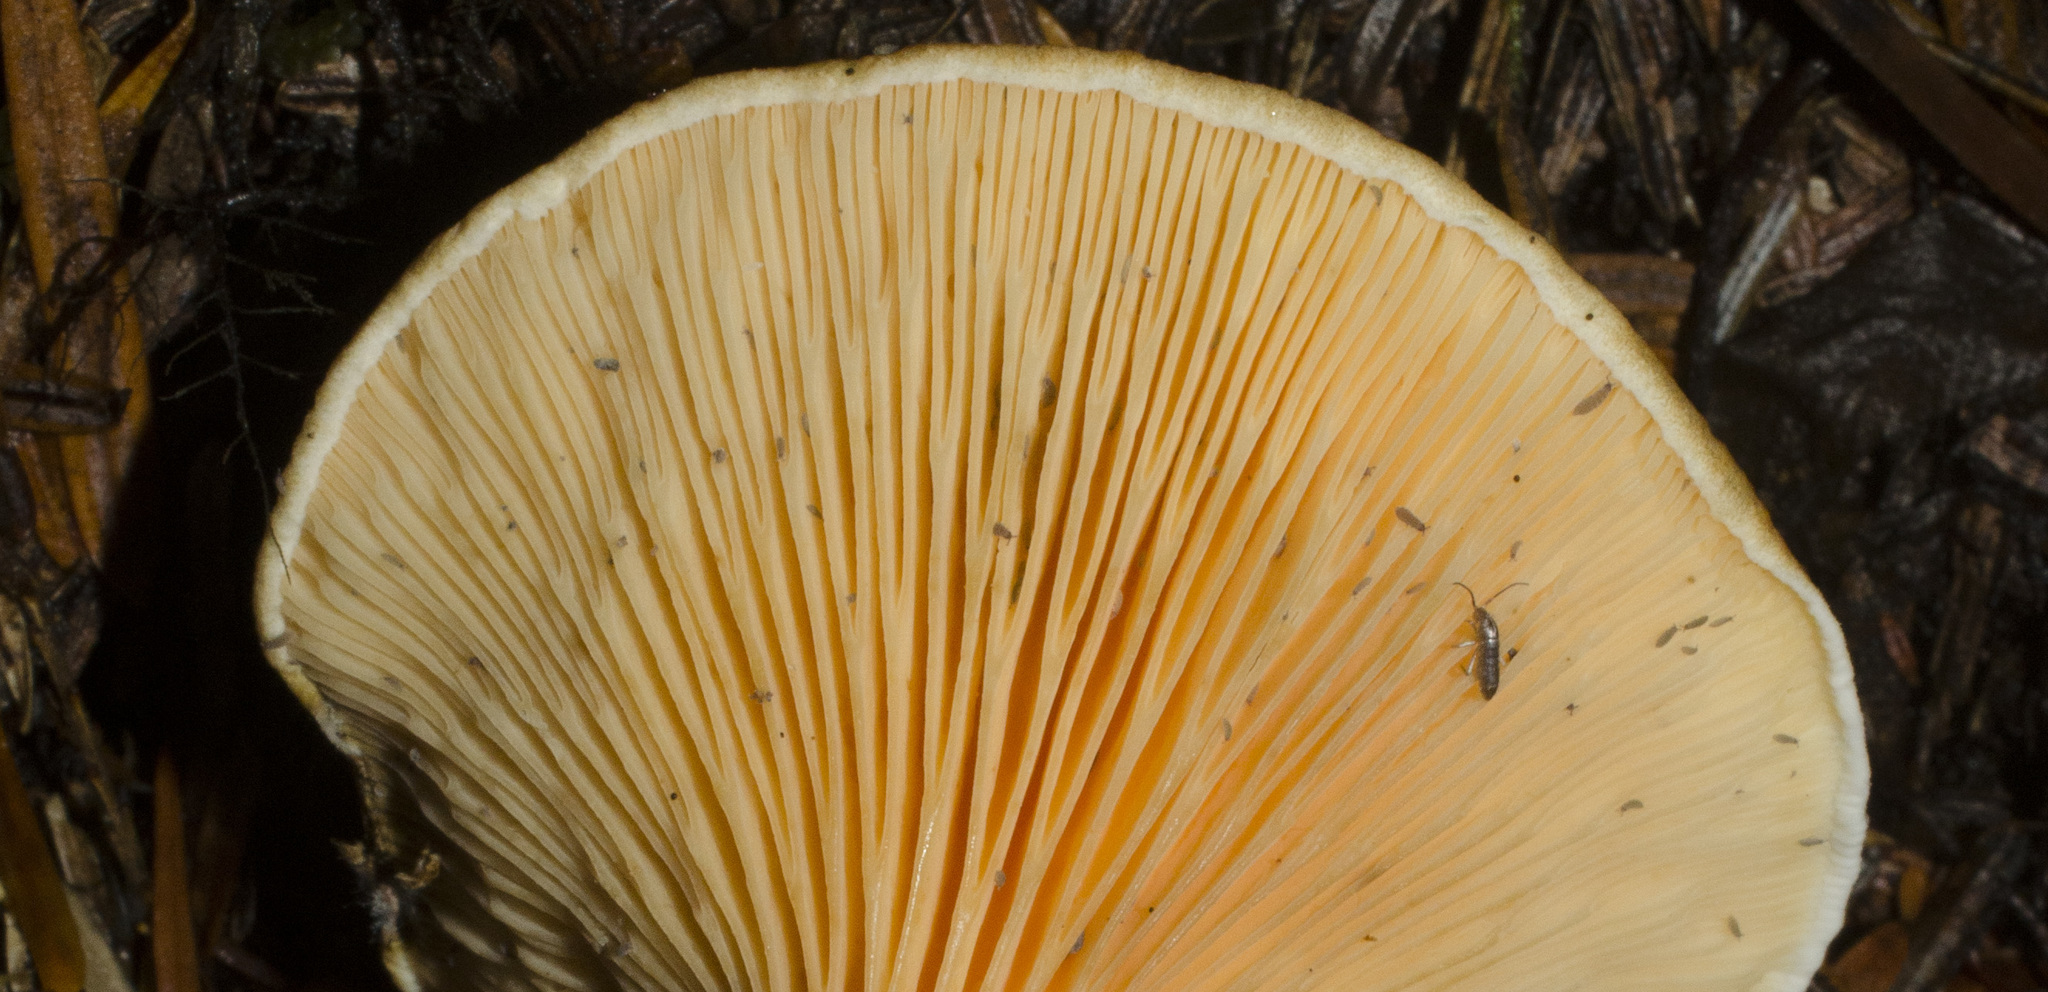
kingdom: Fungi
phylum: Basidiomycota
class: Agaricomycetes
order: Boletales
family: Hygrophoropsidaceae
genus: Hygrophoropsis
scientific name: Hygrophoropsis aurantiaca
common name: False chanterelle
